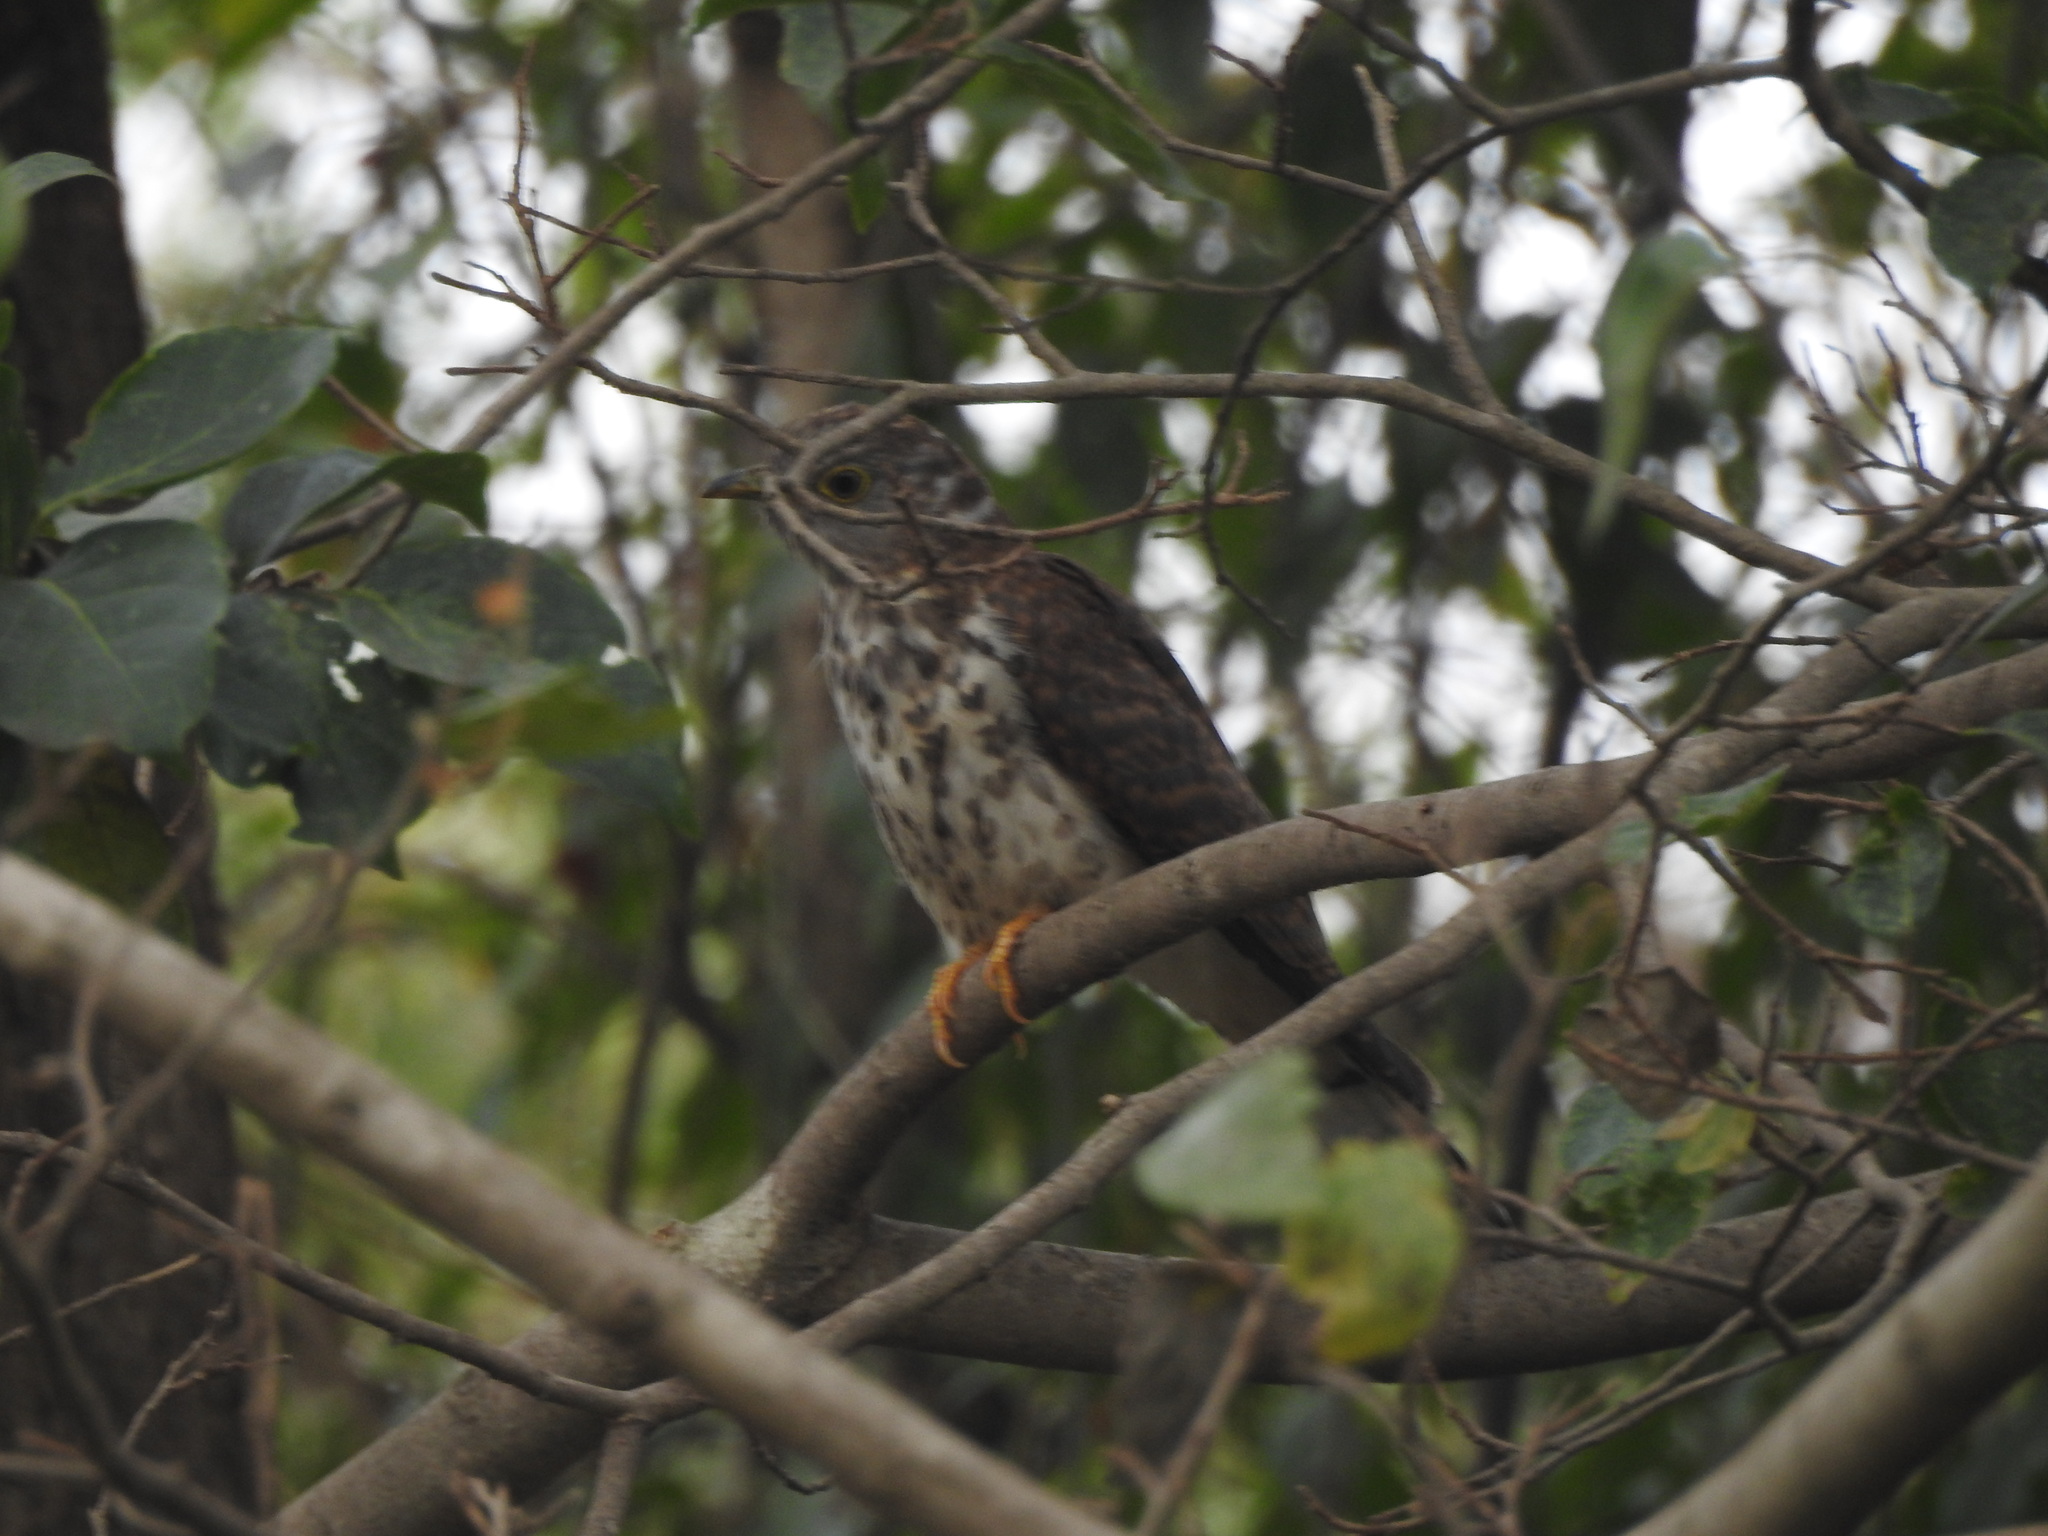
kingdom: Animalia
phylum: Chordata
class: Aves
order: Cuculiformes
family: Cuculidae
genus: Cuculus
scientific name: Cuculus varius
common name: Common hawk cuckoo
